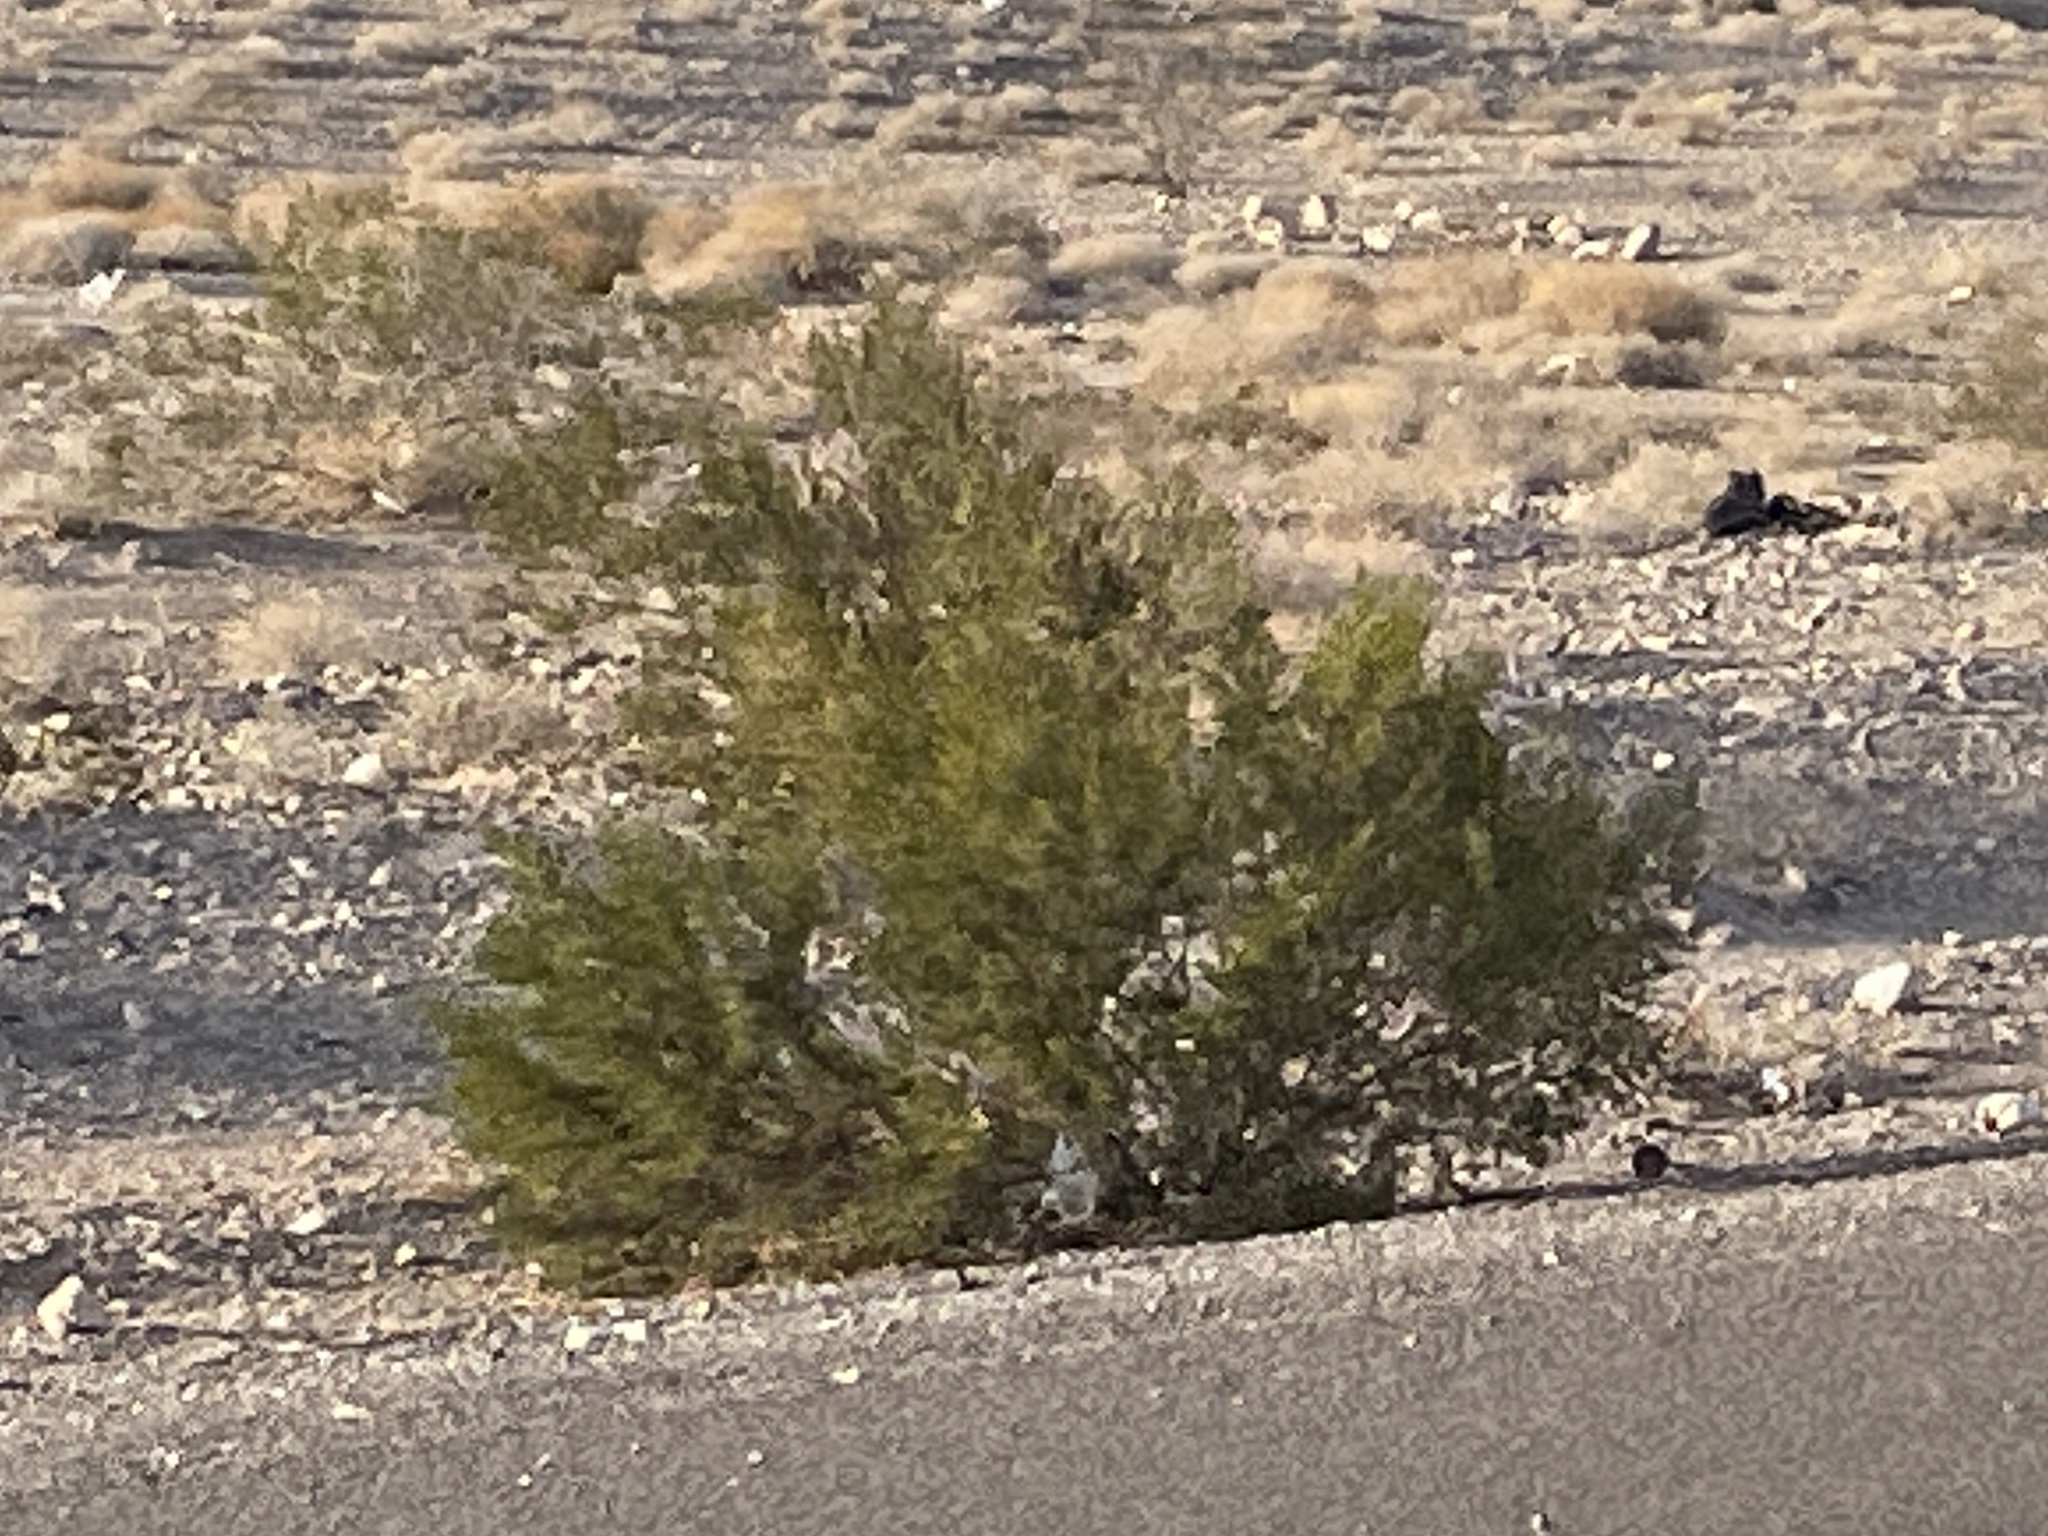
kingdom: Plantae
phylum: Tracheophyta
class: Magnoliopsida
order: Zygophyllales
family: Zygophyllaceae
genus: Larrea
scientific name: Larrea tridentata
